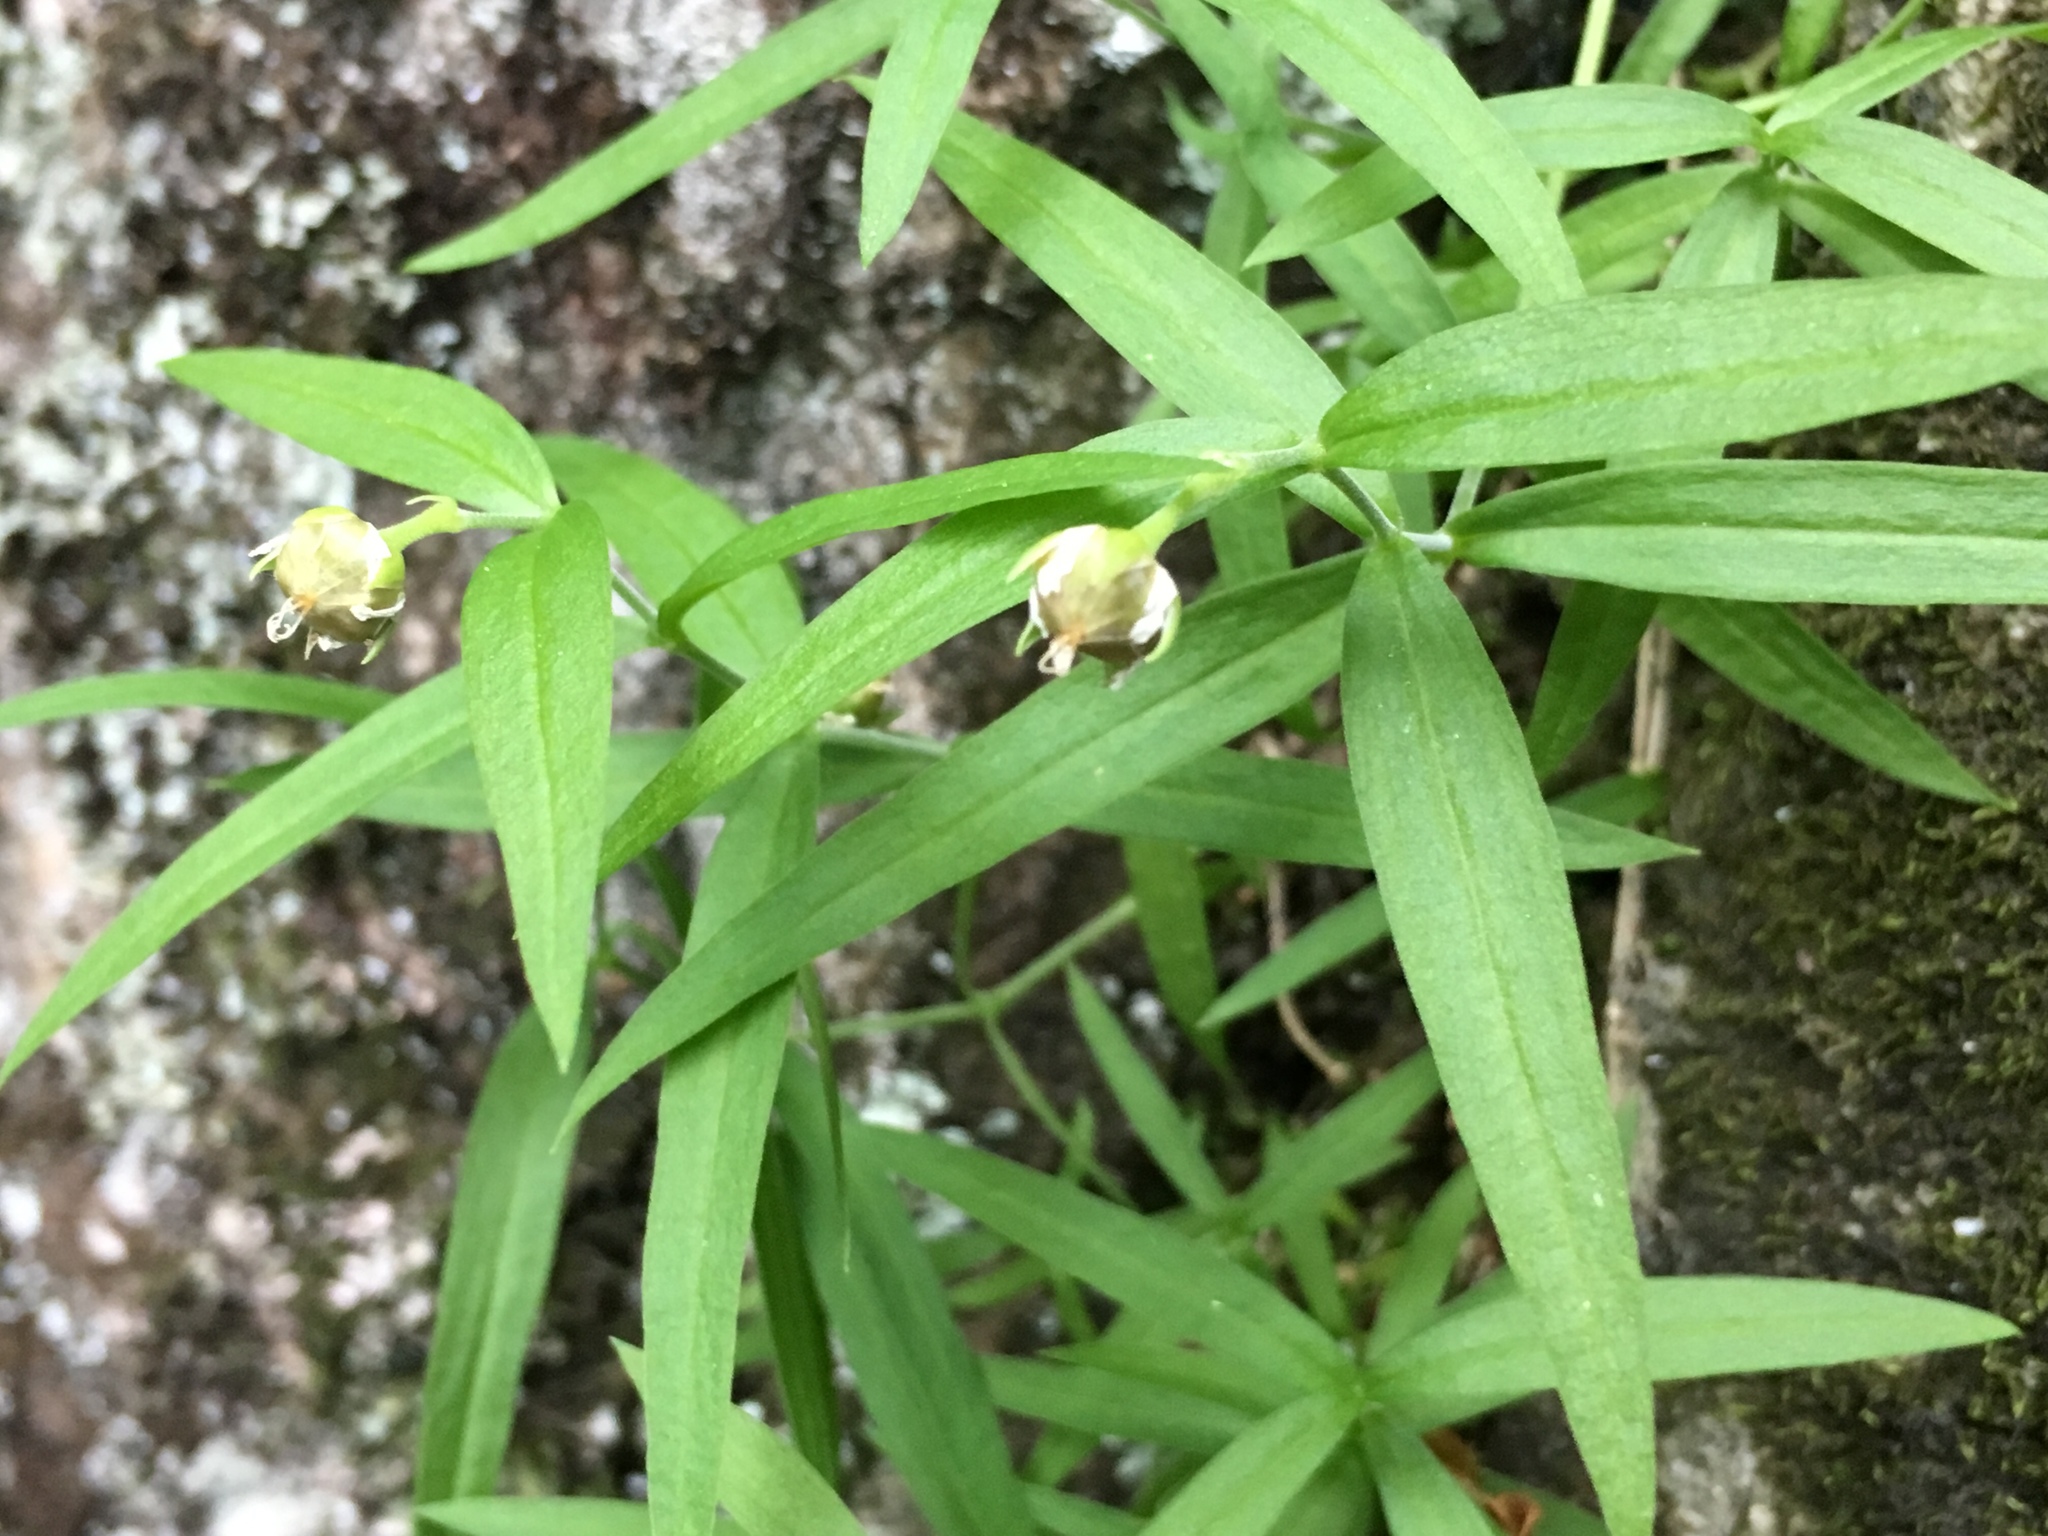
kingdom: Plantae
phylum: Tracheophyta
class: Magnoliopsida
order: Caryophyllales
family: Caryophyllaceae
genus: Moehringia
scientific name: Moehringia macrophylla
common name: Big-leaf sandwort
